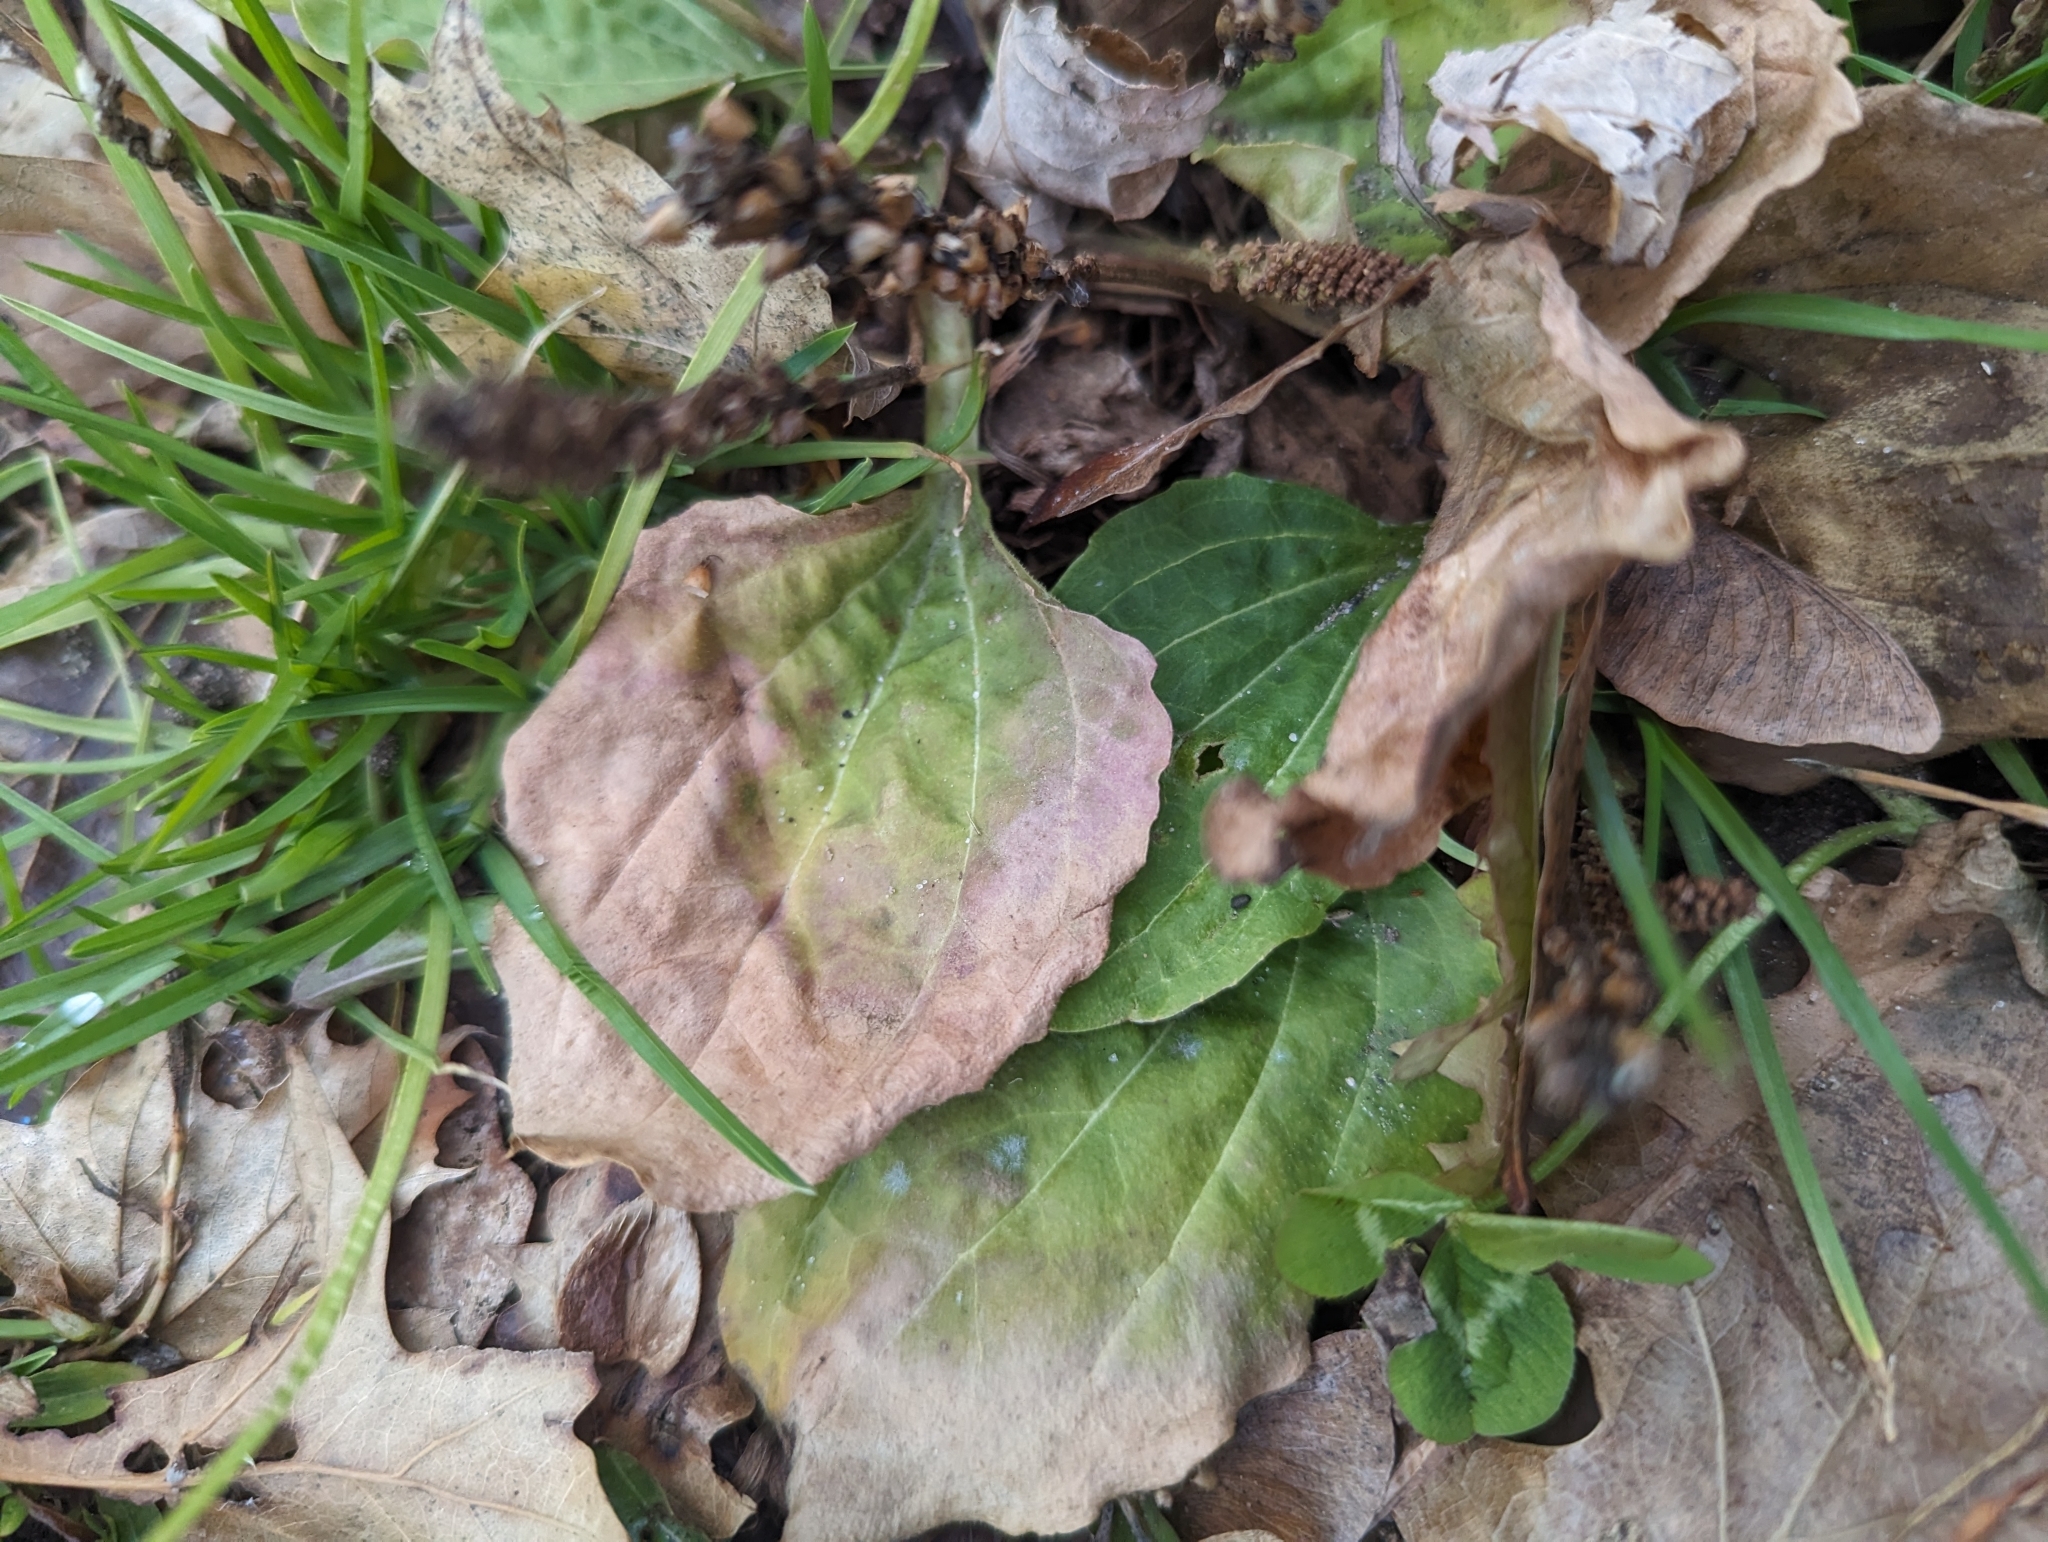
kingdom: Plantae
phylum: Tracheophyta
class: Magnoliopsida
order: Lamiales
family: Plantaginaceae
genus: Plantago
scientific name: Plantago major
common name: Common plantain
